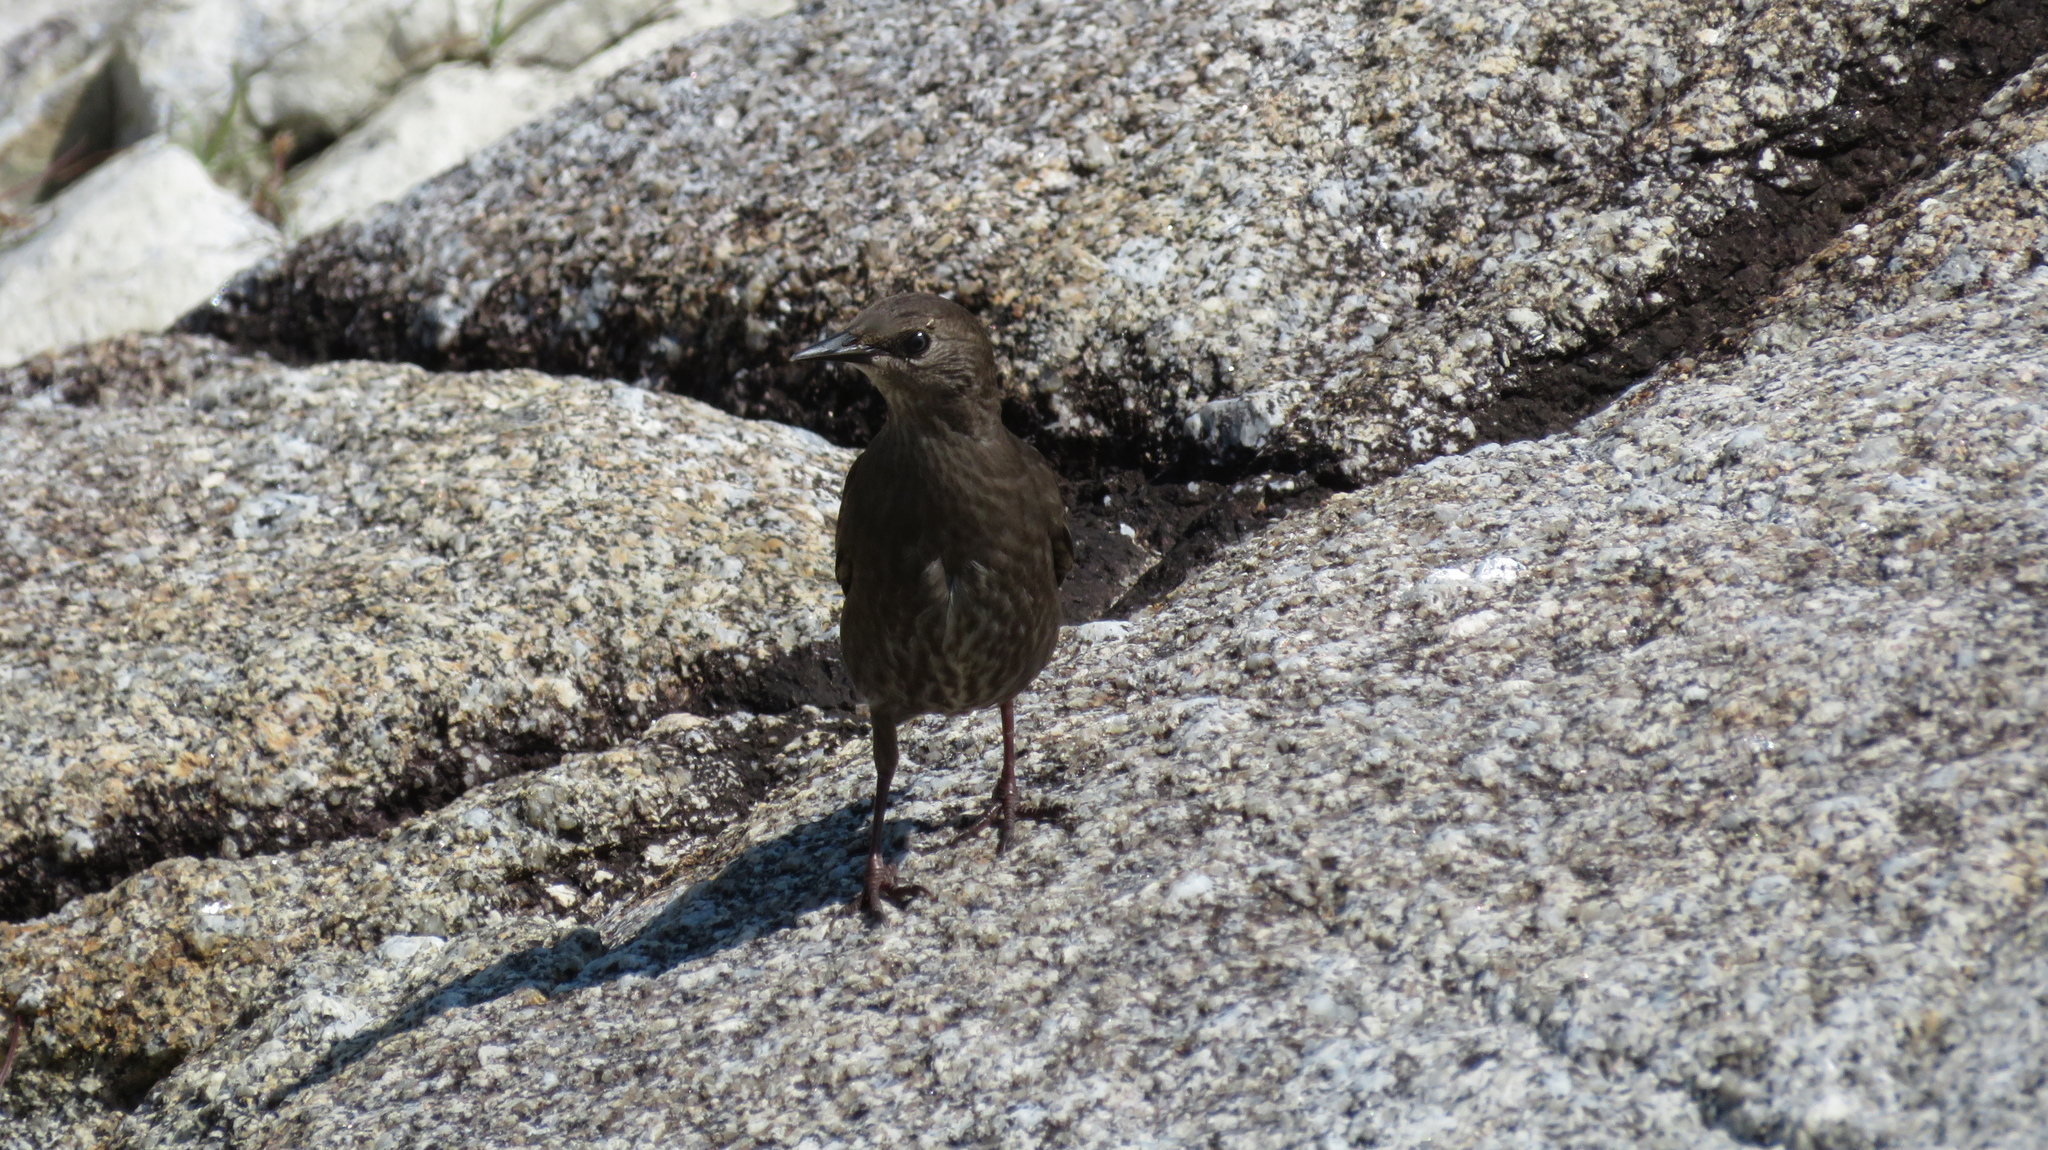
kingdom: Animalia
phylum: Chordata
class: Aves
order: Passeriformes
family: Sturnidae
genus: Sturnus
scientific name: Sturnus vulgaris
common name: Common starling
